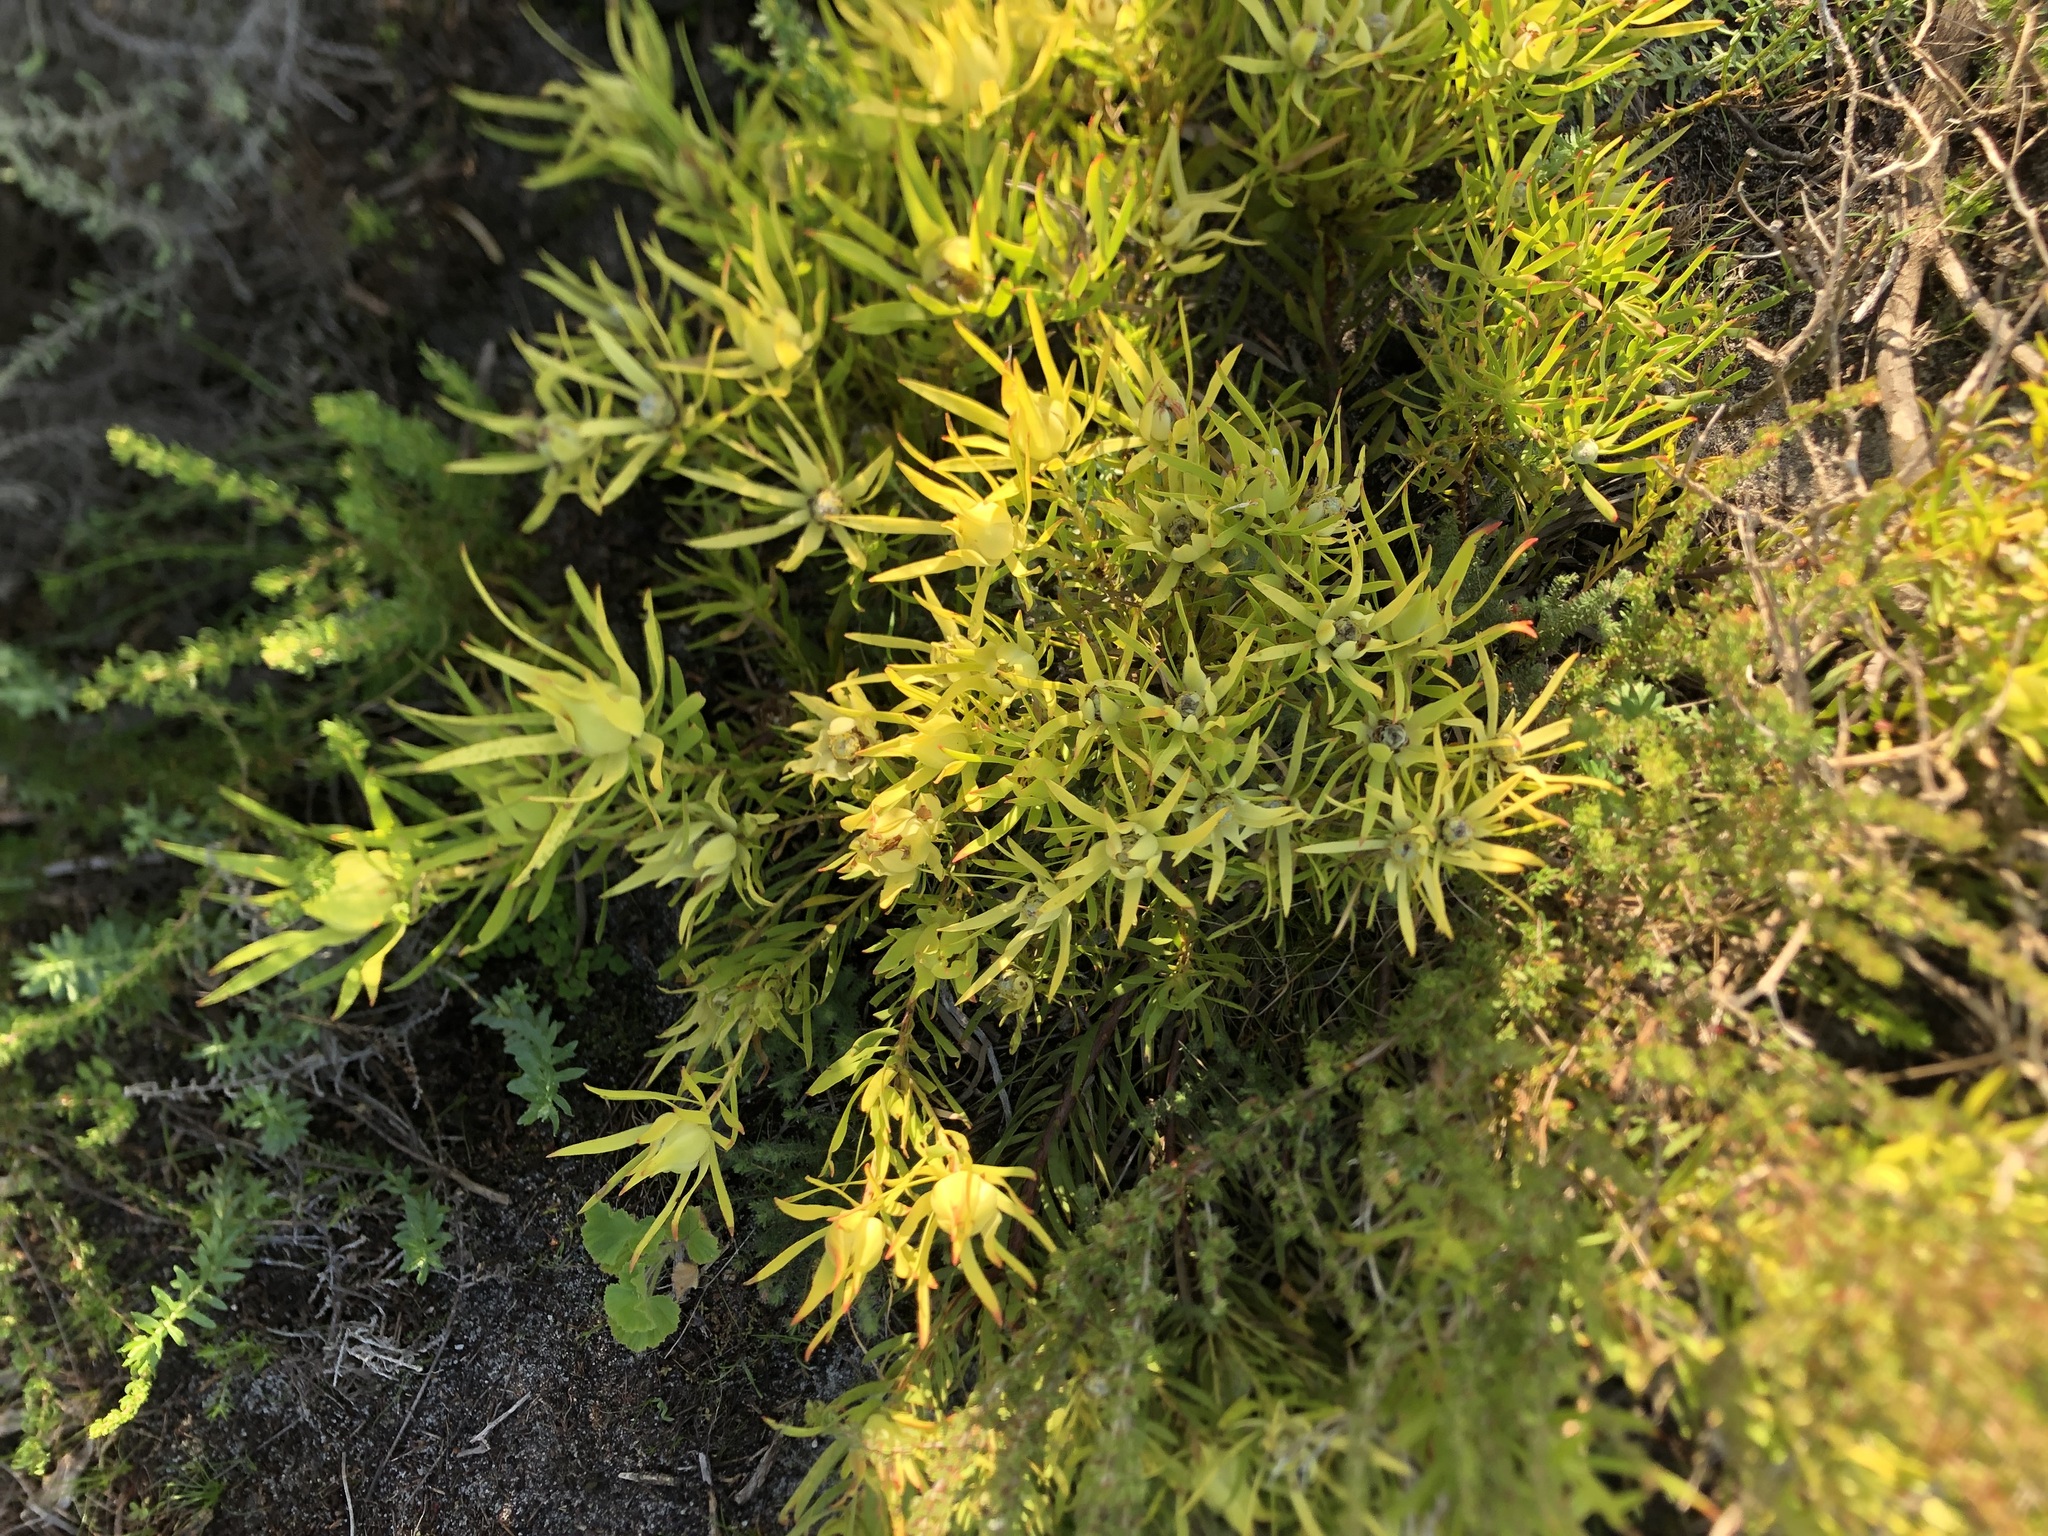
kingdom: Plantae
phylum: Tracheophyta
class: Magnoliopsida
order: Proteales
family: Proteaceae
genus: Leucadendron
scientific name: Leucadendron salignum
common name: Common sunshine conebush
